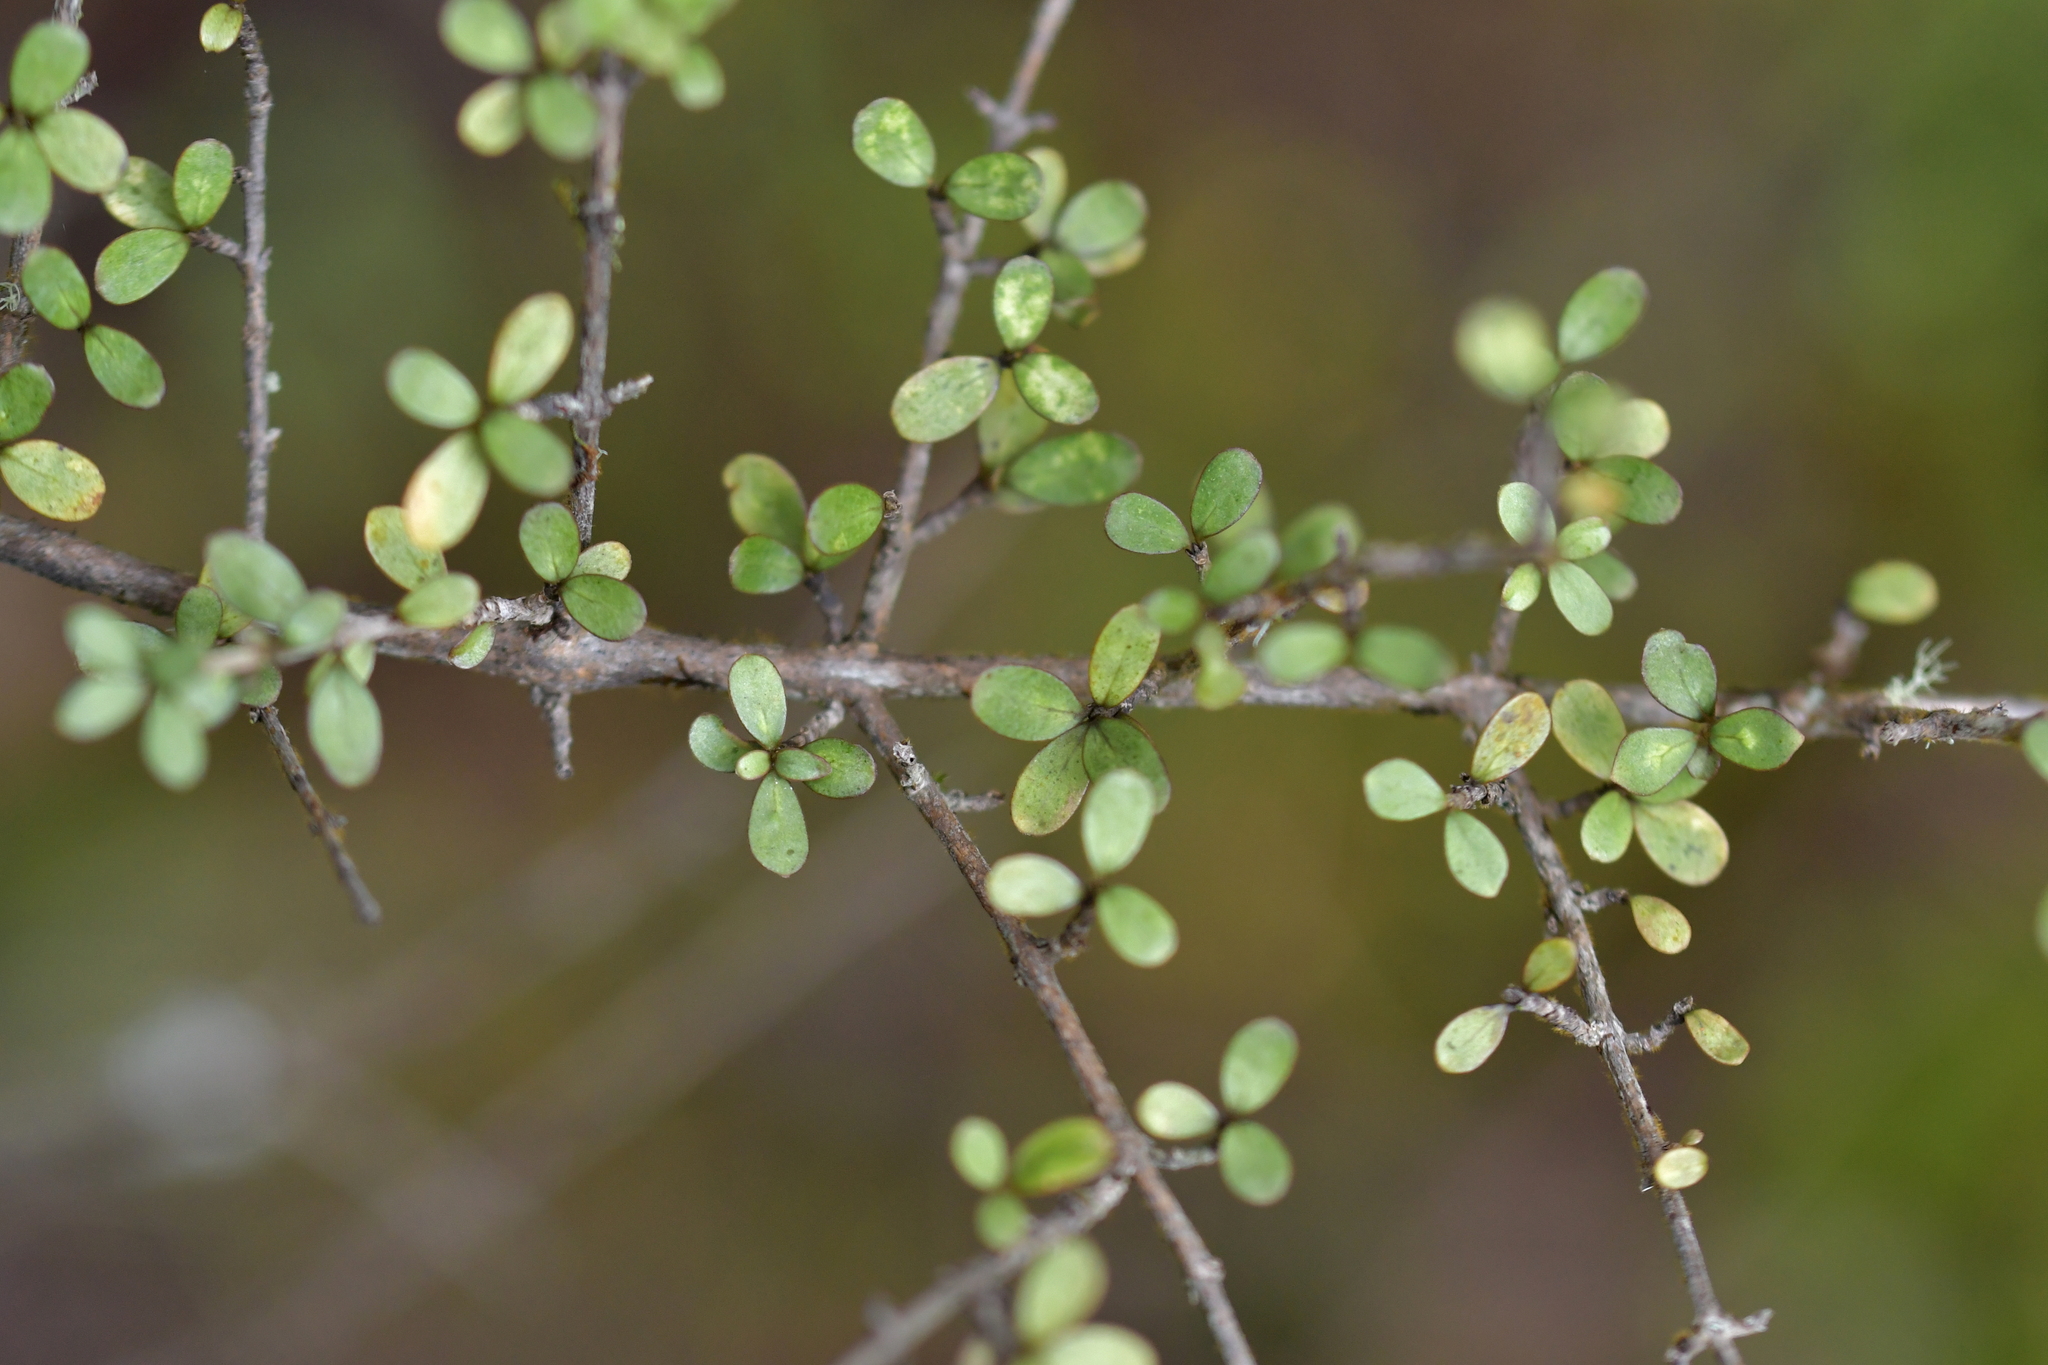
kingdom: Plantae
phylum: Tracheophyta
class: Magnoliopsida
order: Gentianales
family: Rubiaceae
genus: Coprosma
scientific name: Coprosma dumosa
